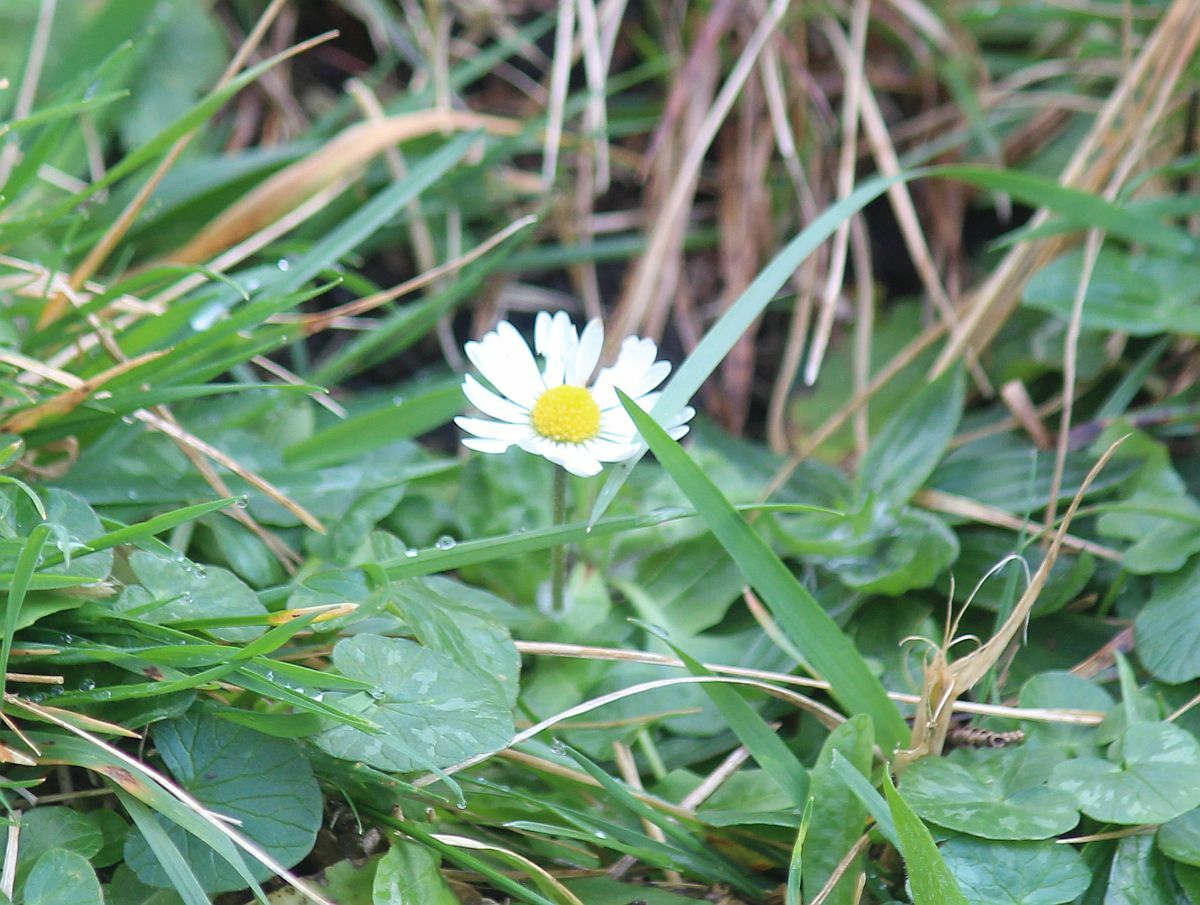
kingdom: Plantae
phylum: Tracheophyta
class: Magnoliopsida
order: Asterales
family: Asteraceae
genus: Bellis
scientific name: Bellis perennis
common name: Lawndaisy
